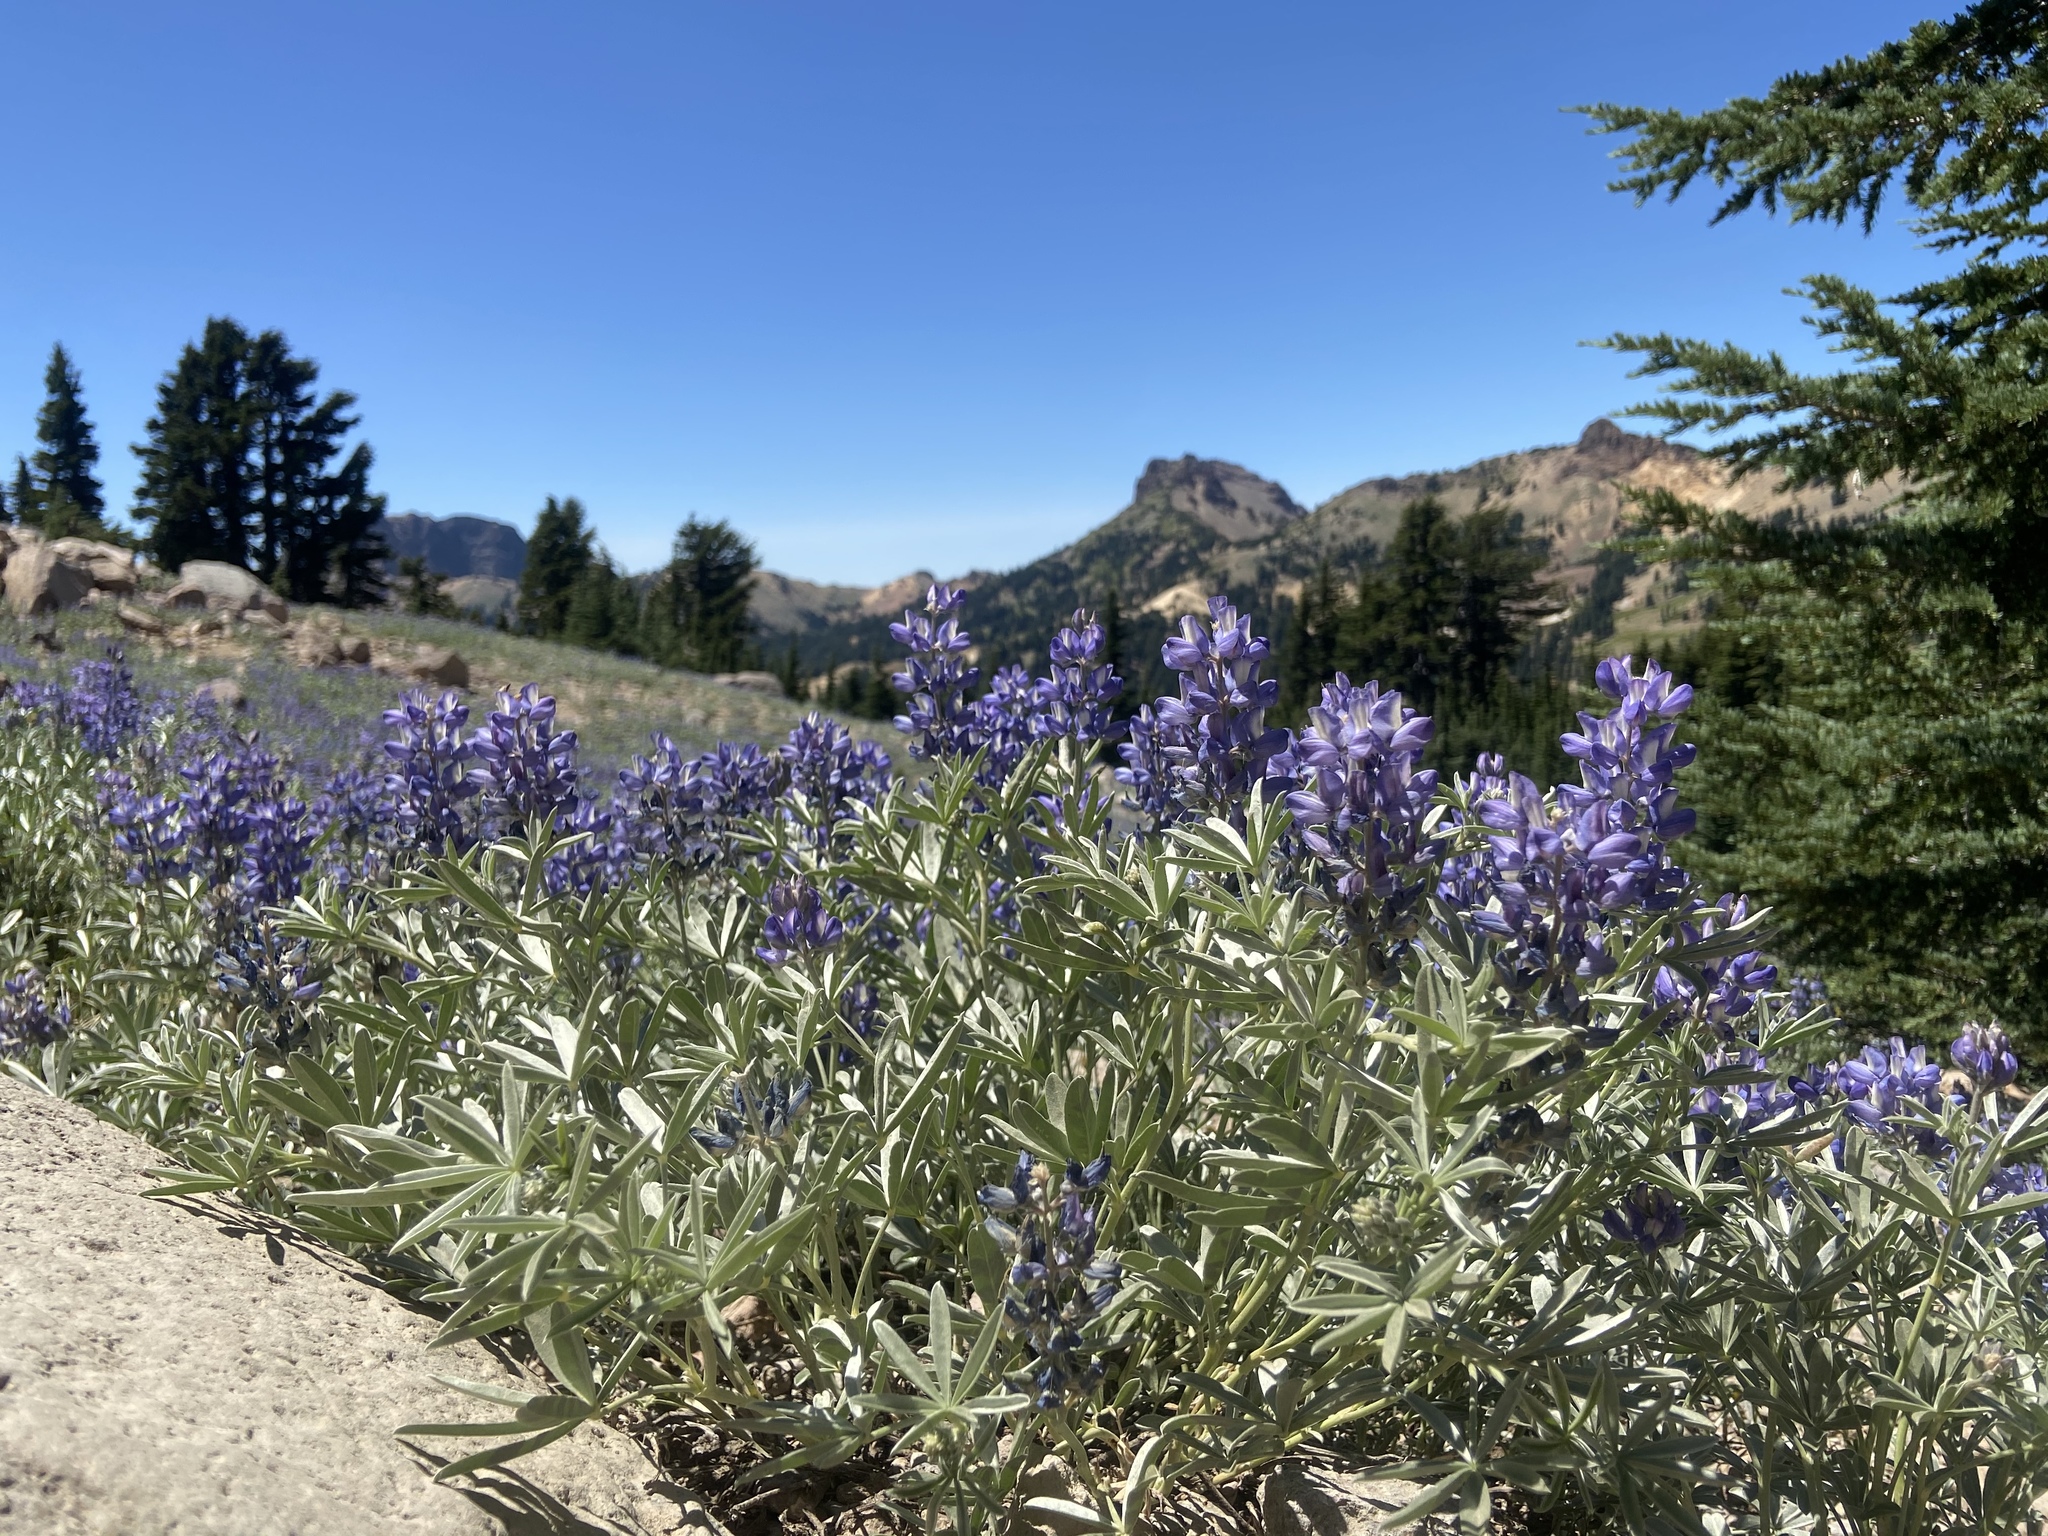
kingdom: Plantae
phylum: Tracheophyta
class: Magnoliopsida
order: Fabales
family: Fabaceae
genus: Lupinus
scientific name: Lupinus obtusilobus
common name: Blunt-lobe lupine
